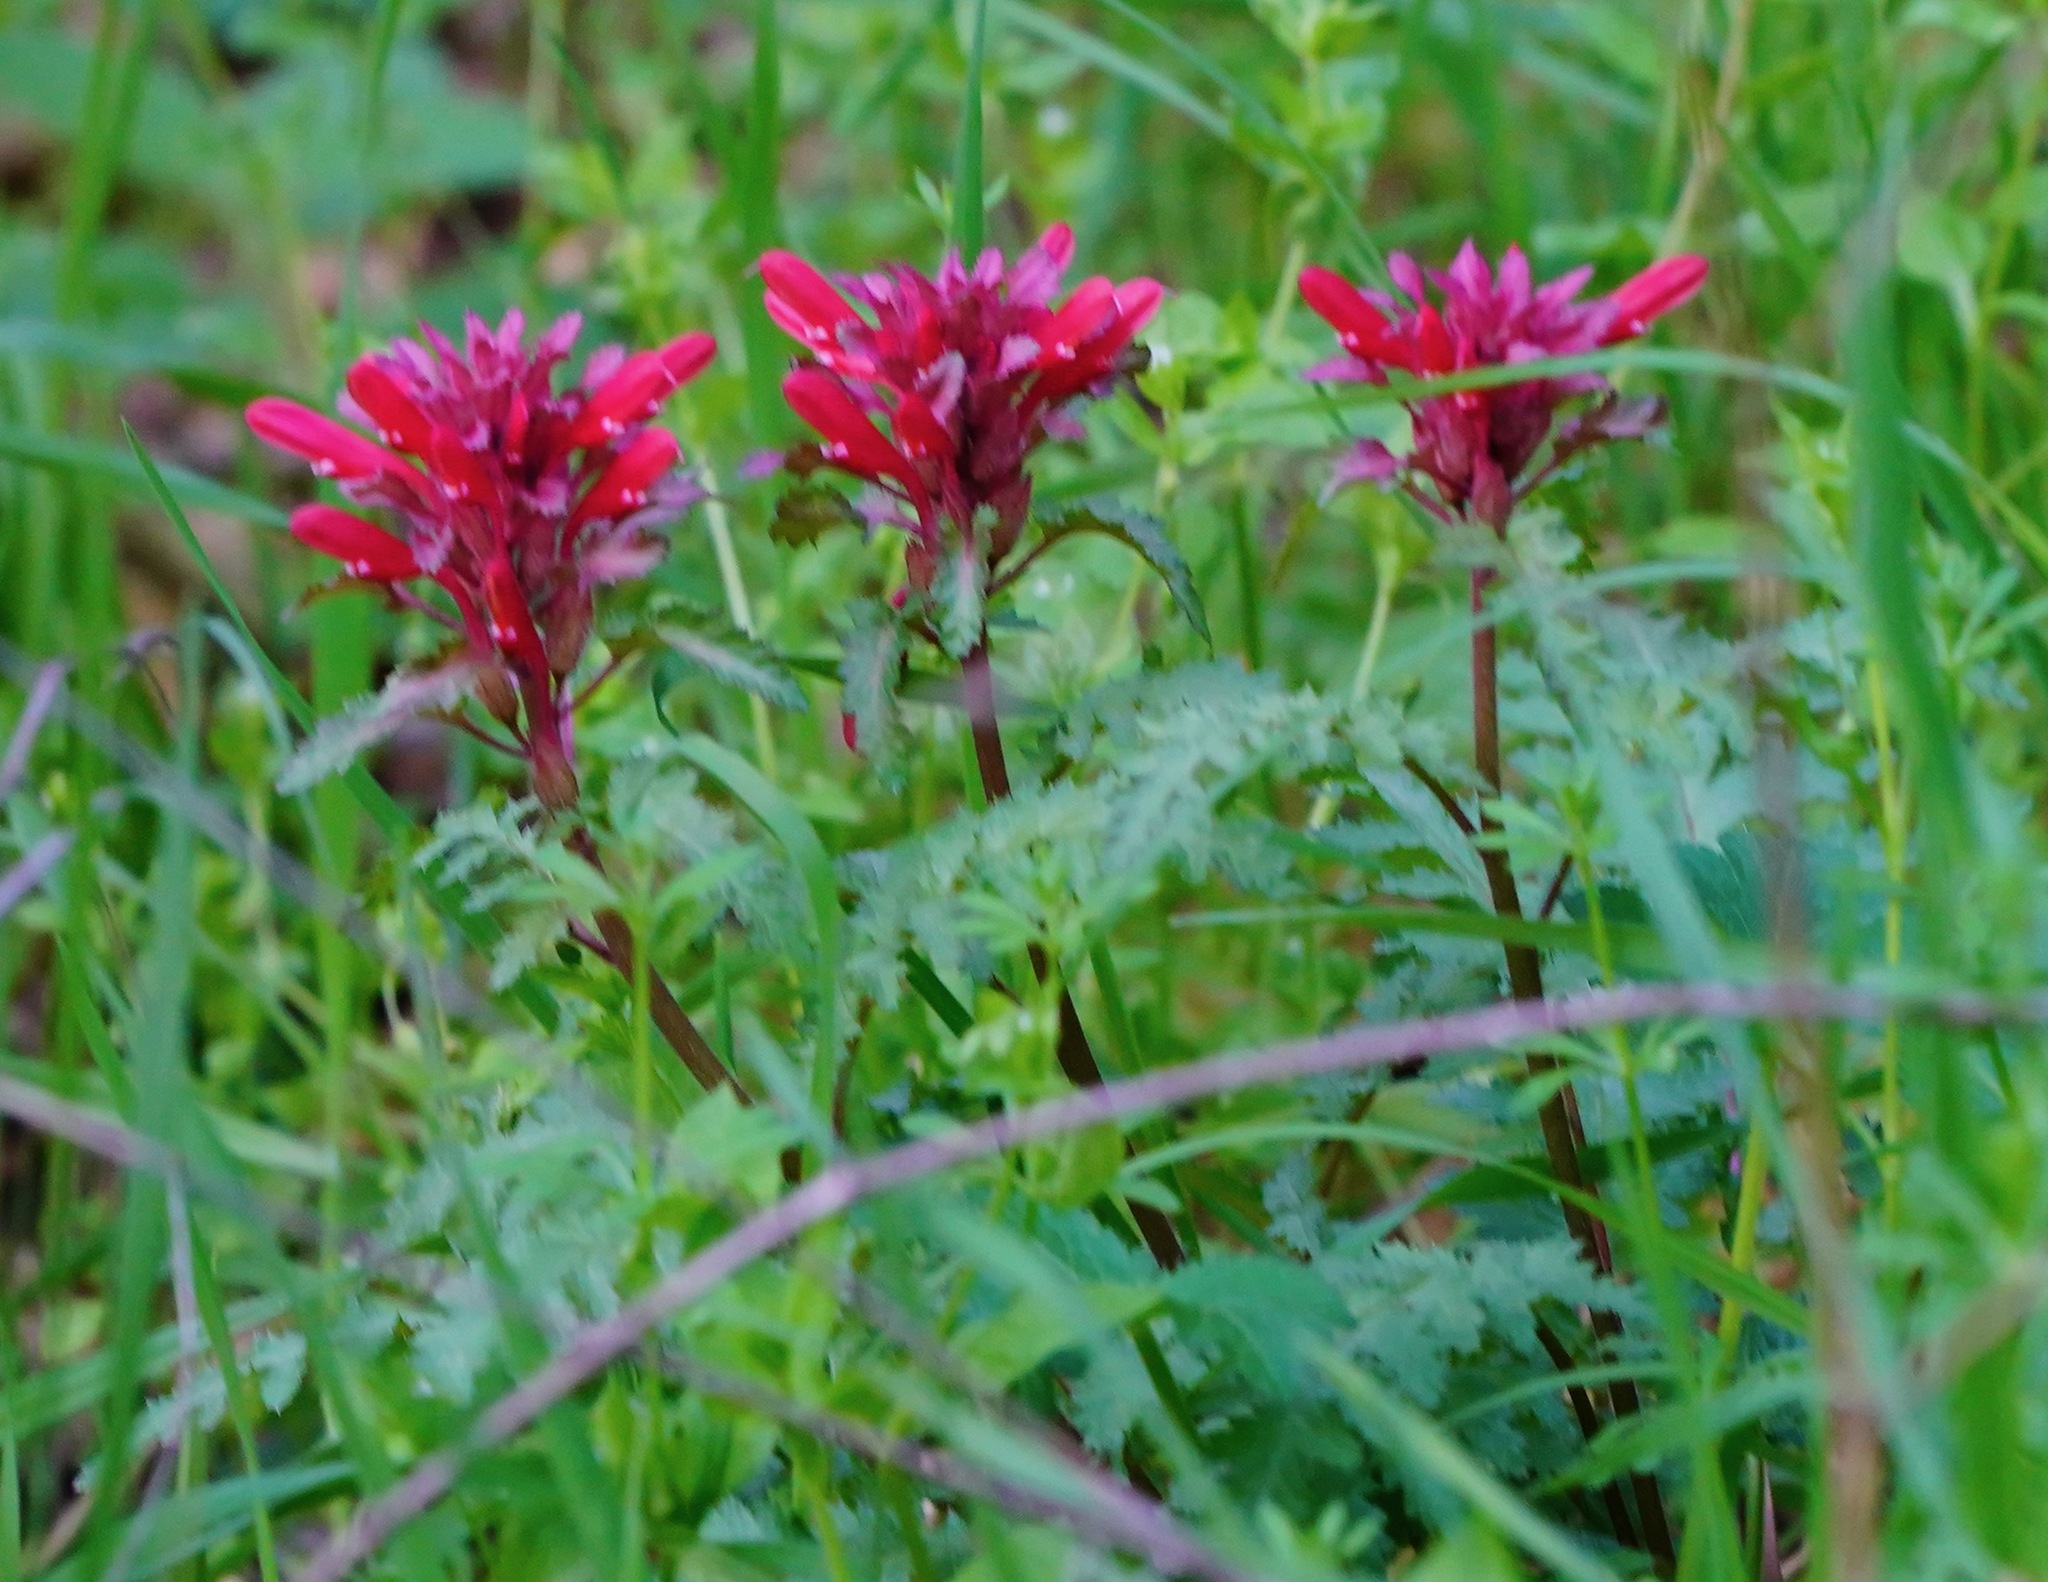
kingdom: Plantae
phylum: Tracheophyta
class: Magnoliopsida
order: Lamiales
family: Orobanchaceae
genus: Pedicularis
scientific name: Pedicularis densiflora
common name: Indian warrior
